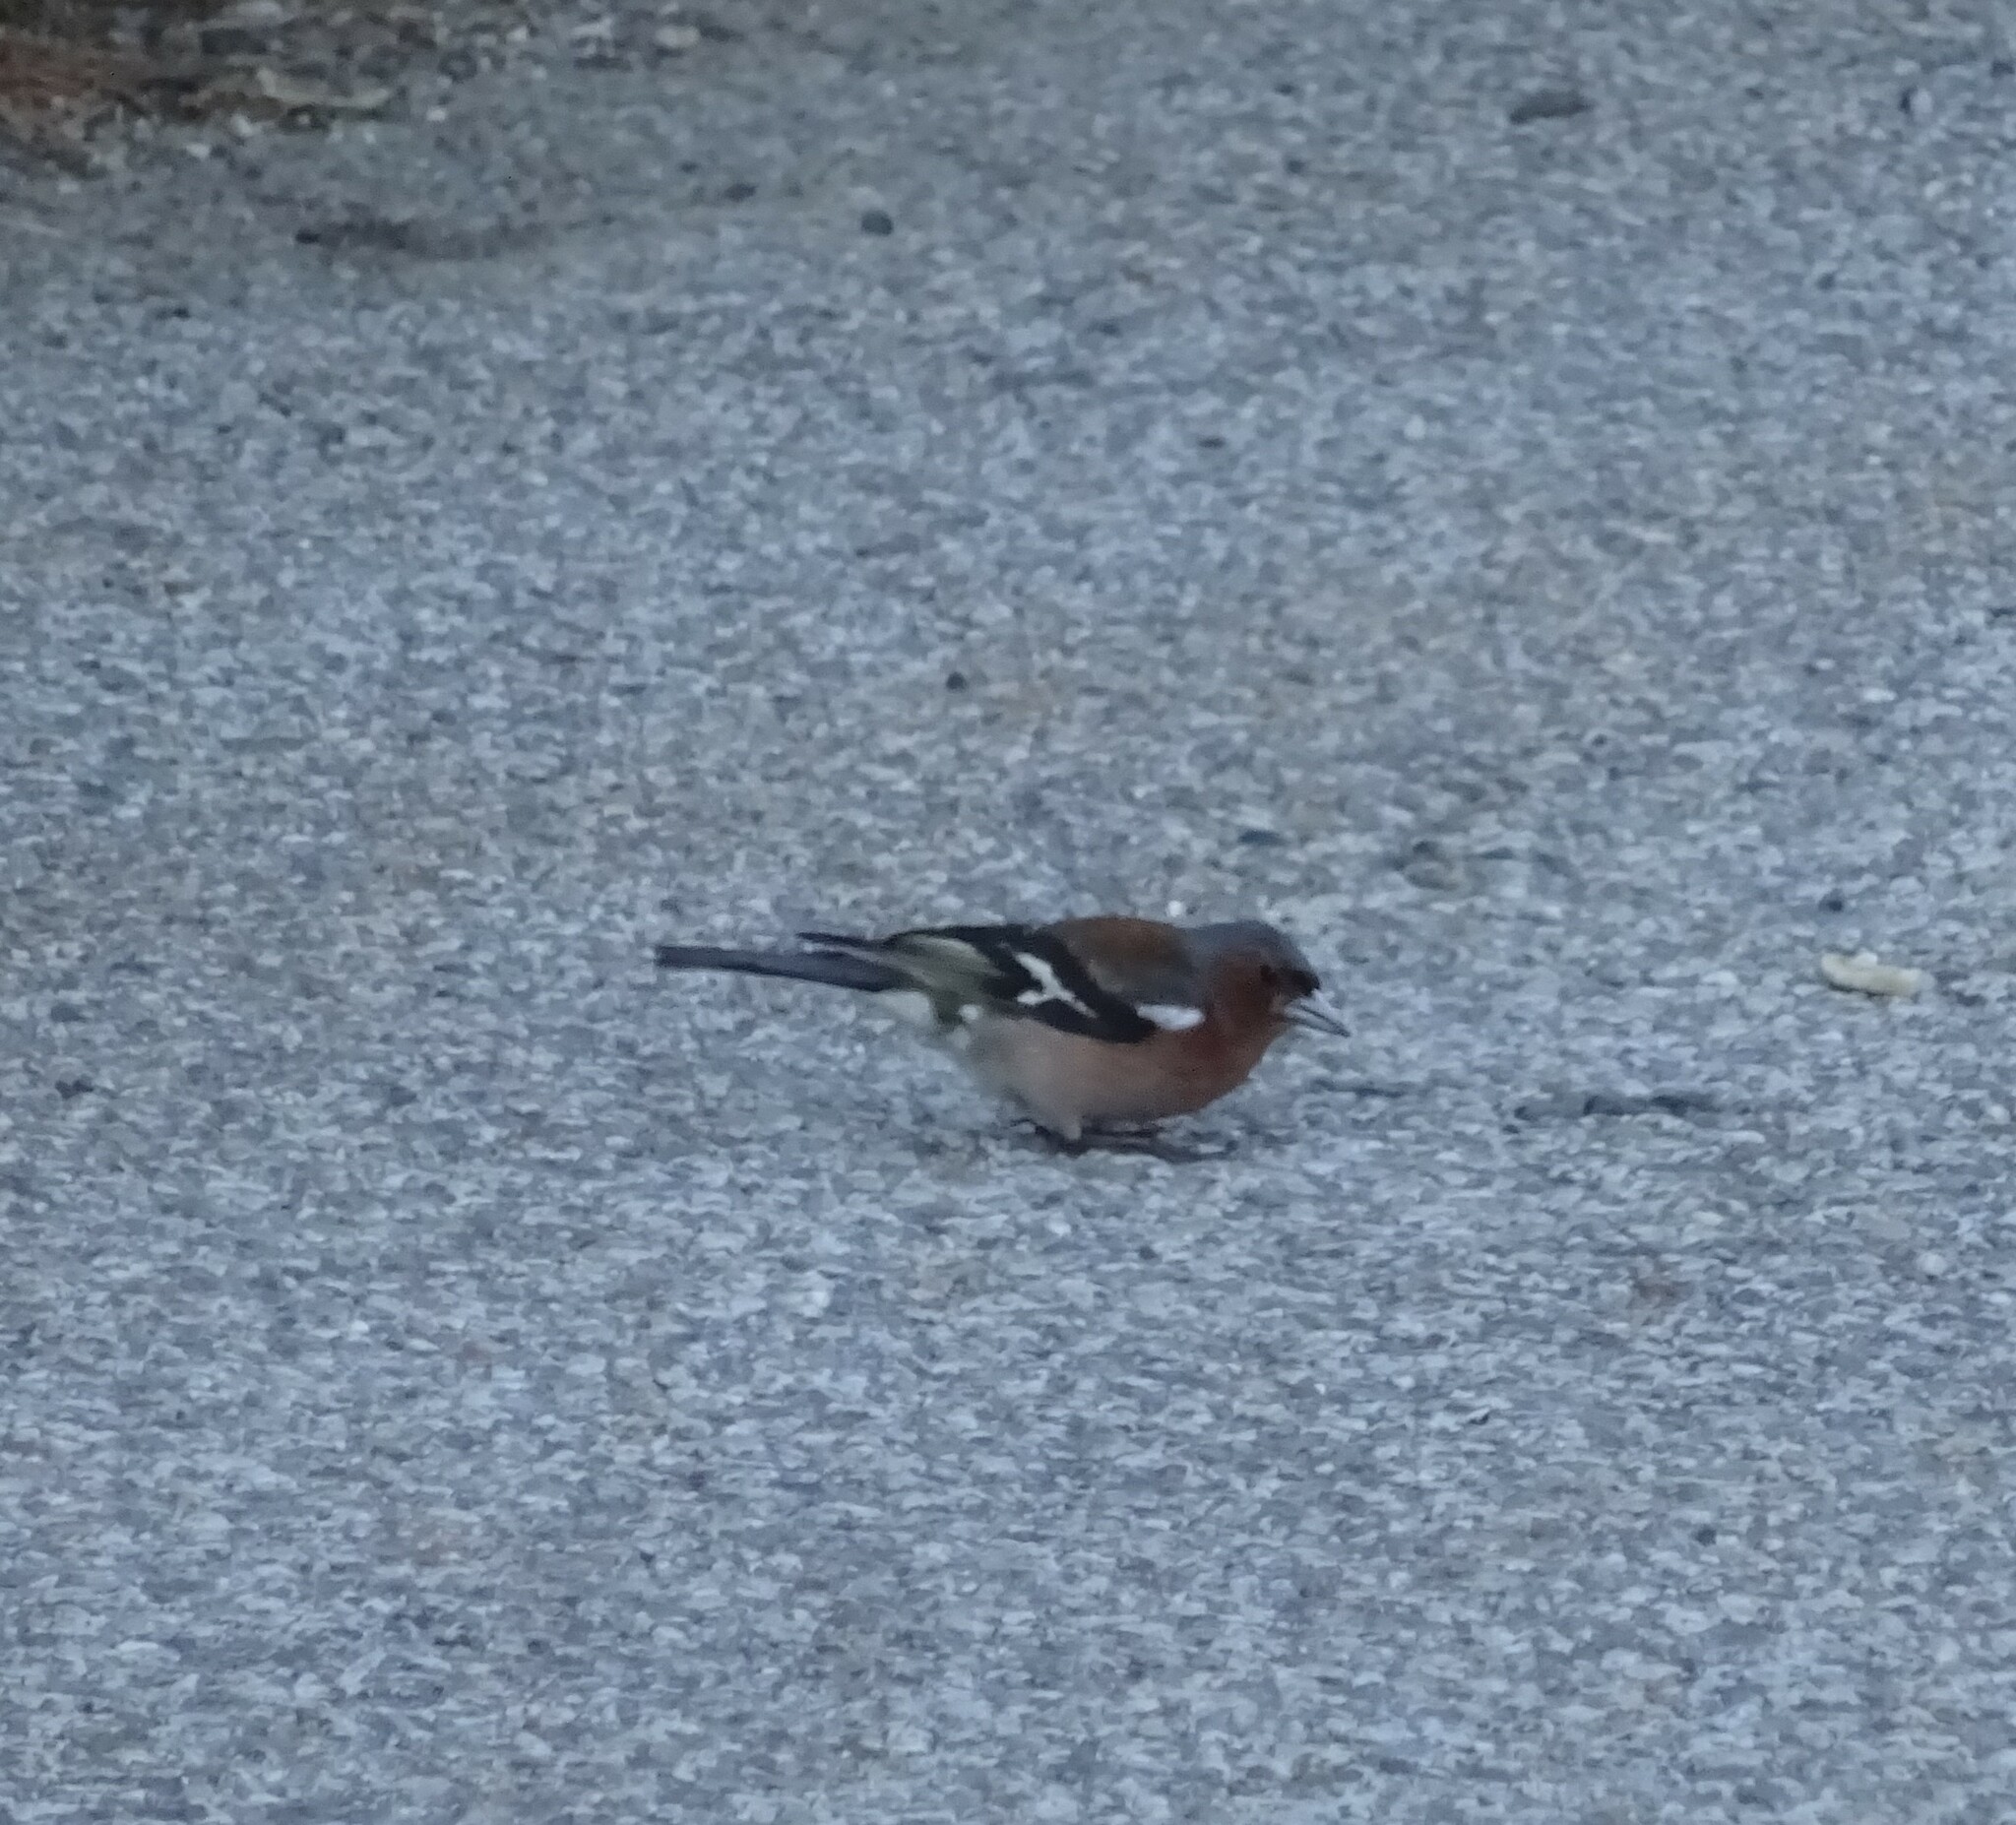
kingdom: Animalia
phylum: Chordata
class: Aves
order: Passeriformes
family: Fringillidae
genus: Fringilla
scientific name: Fringilla coelebs
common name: Common chaffinch
